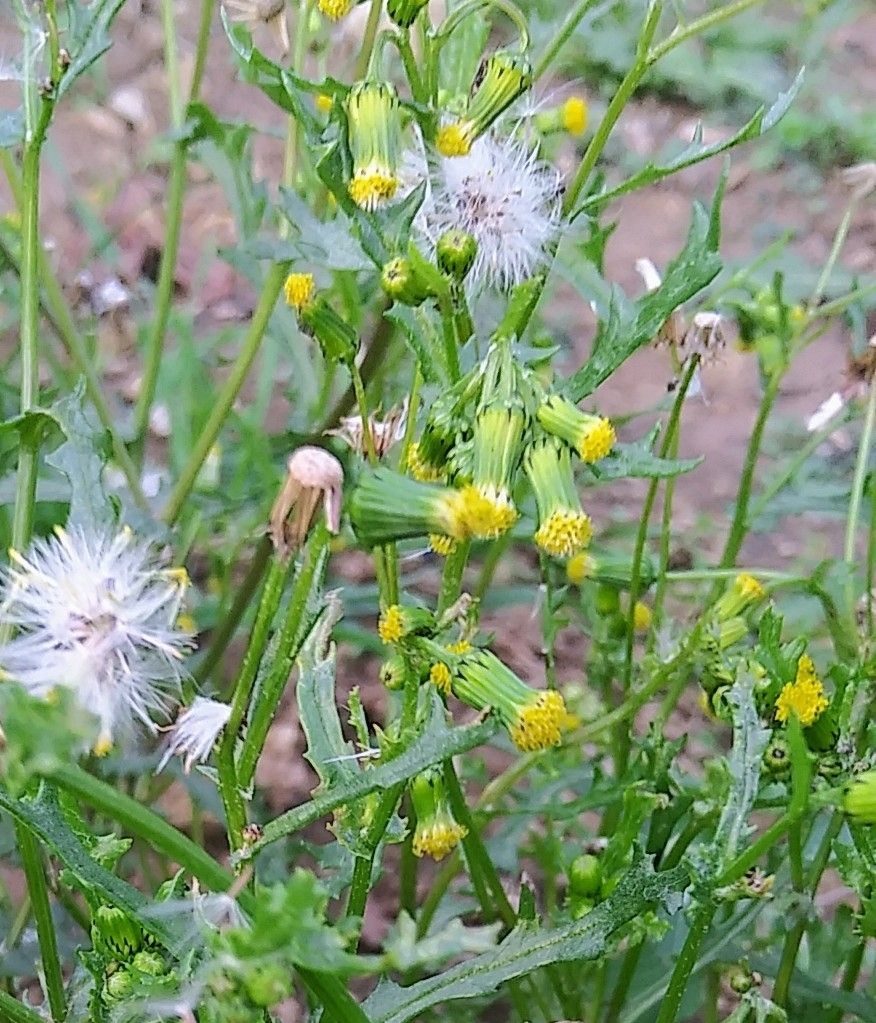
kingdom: Plantae
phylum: Tracheophyta
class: Magnoliopsida
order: Asterales
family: Asteraceae
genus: Senecio
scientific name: Senecio vulgaris
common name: Old-man-in-the-spring
